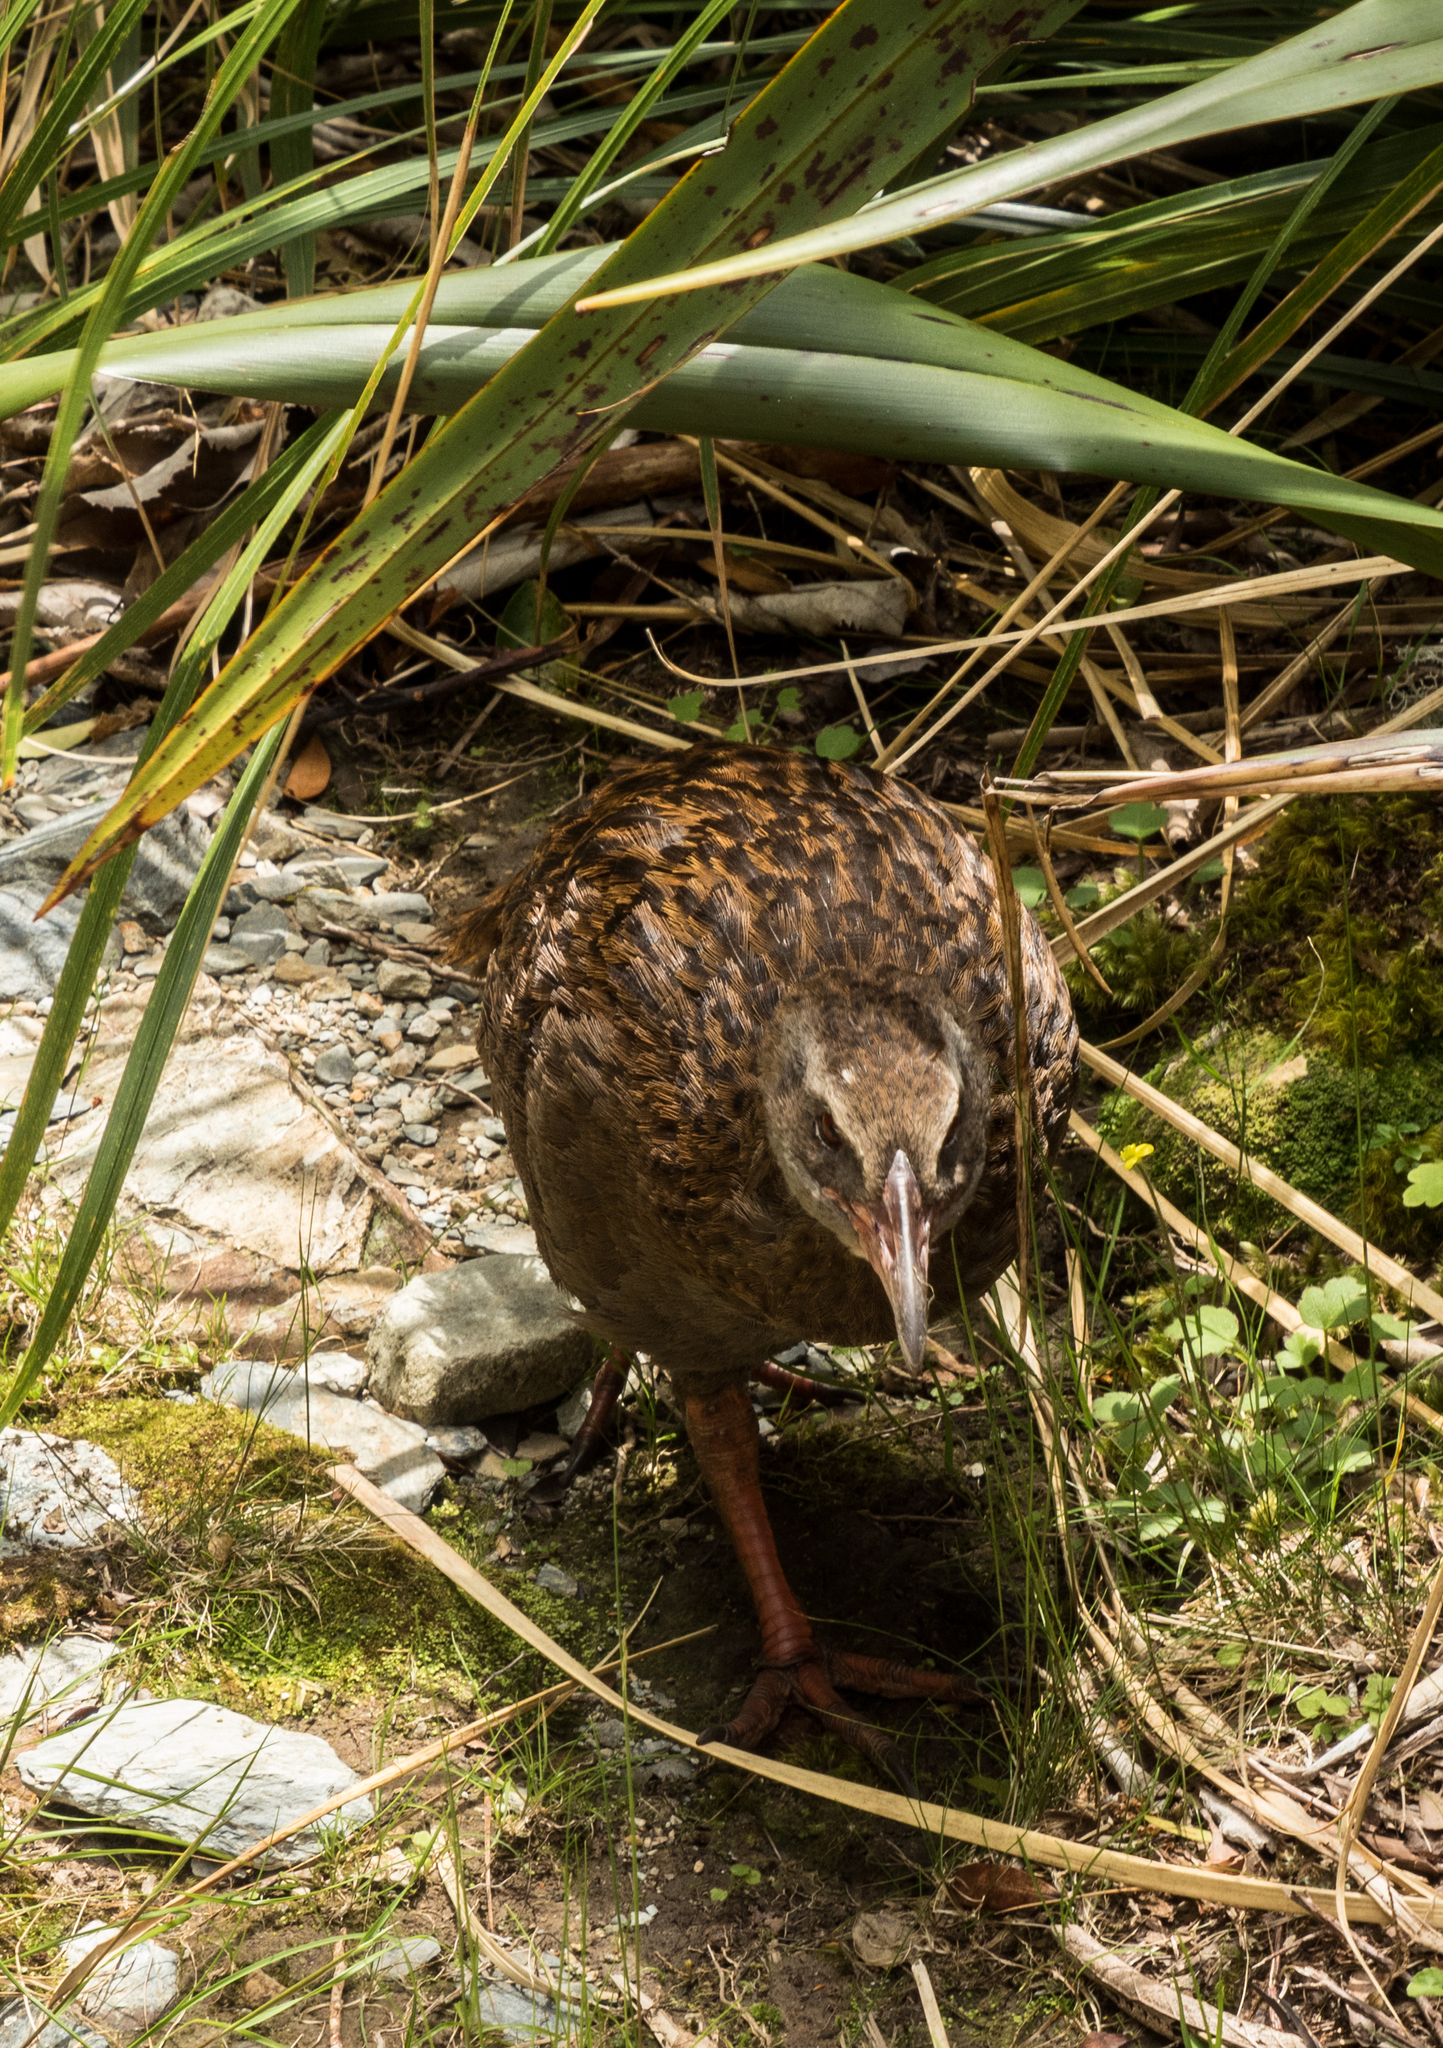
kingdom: Animalia
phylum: Chordata
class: Aves
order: Gruiformes
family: Rallidae
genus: Gallirallus
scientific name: Gallirallus australis
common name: Weka
